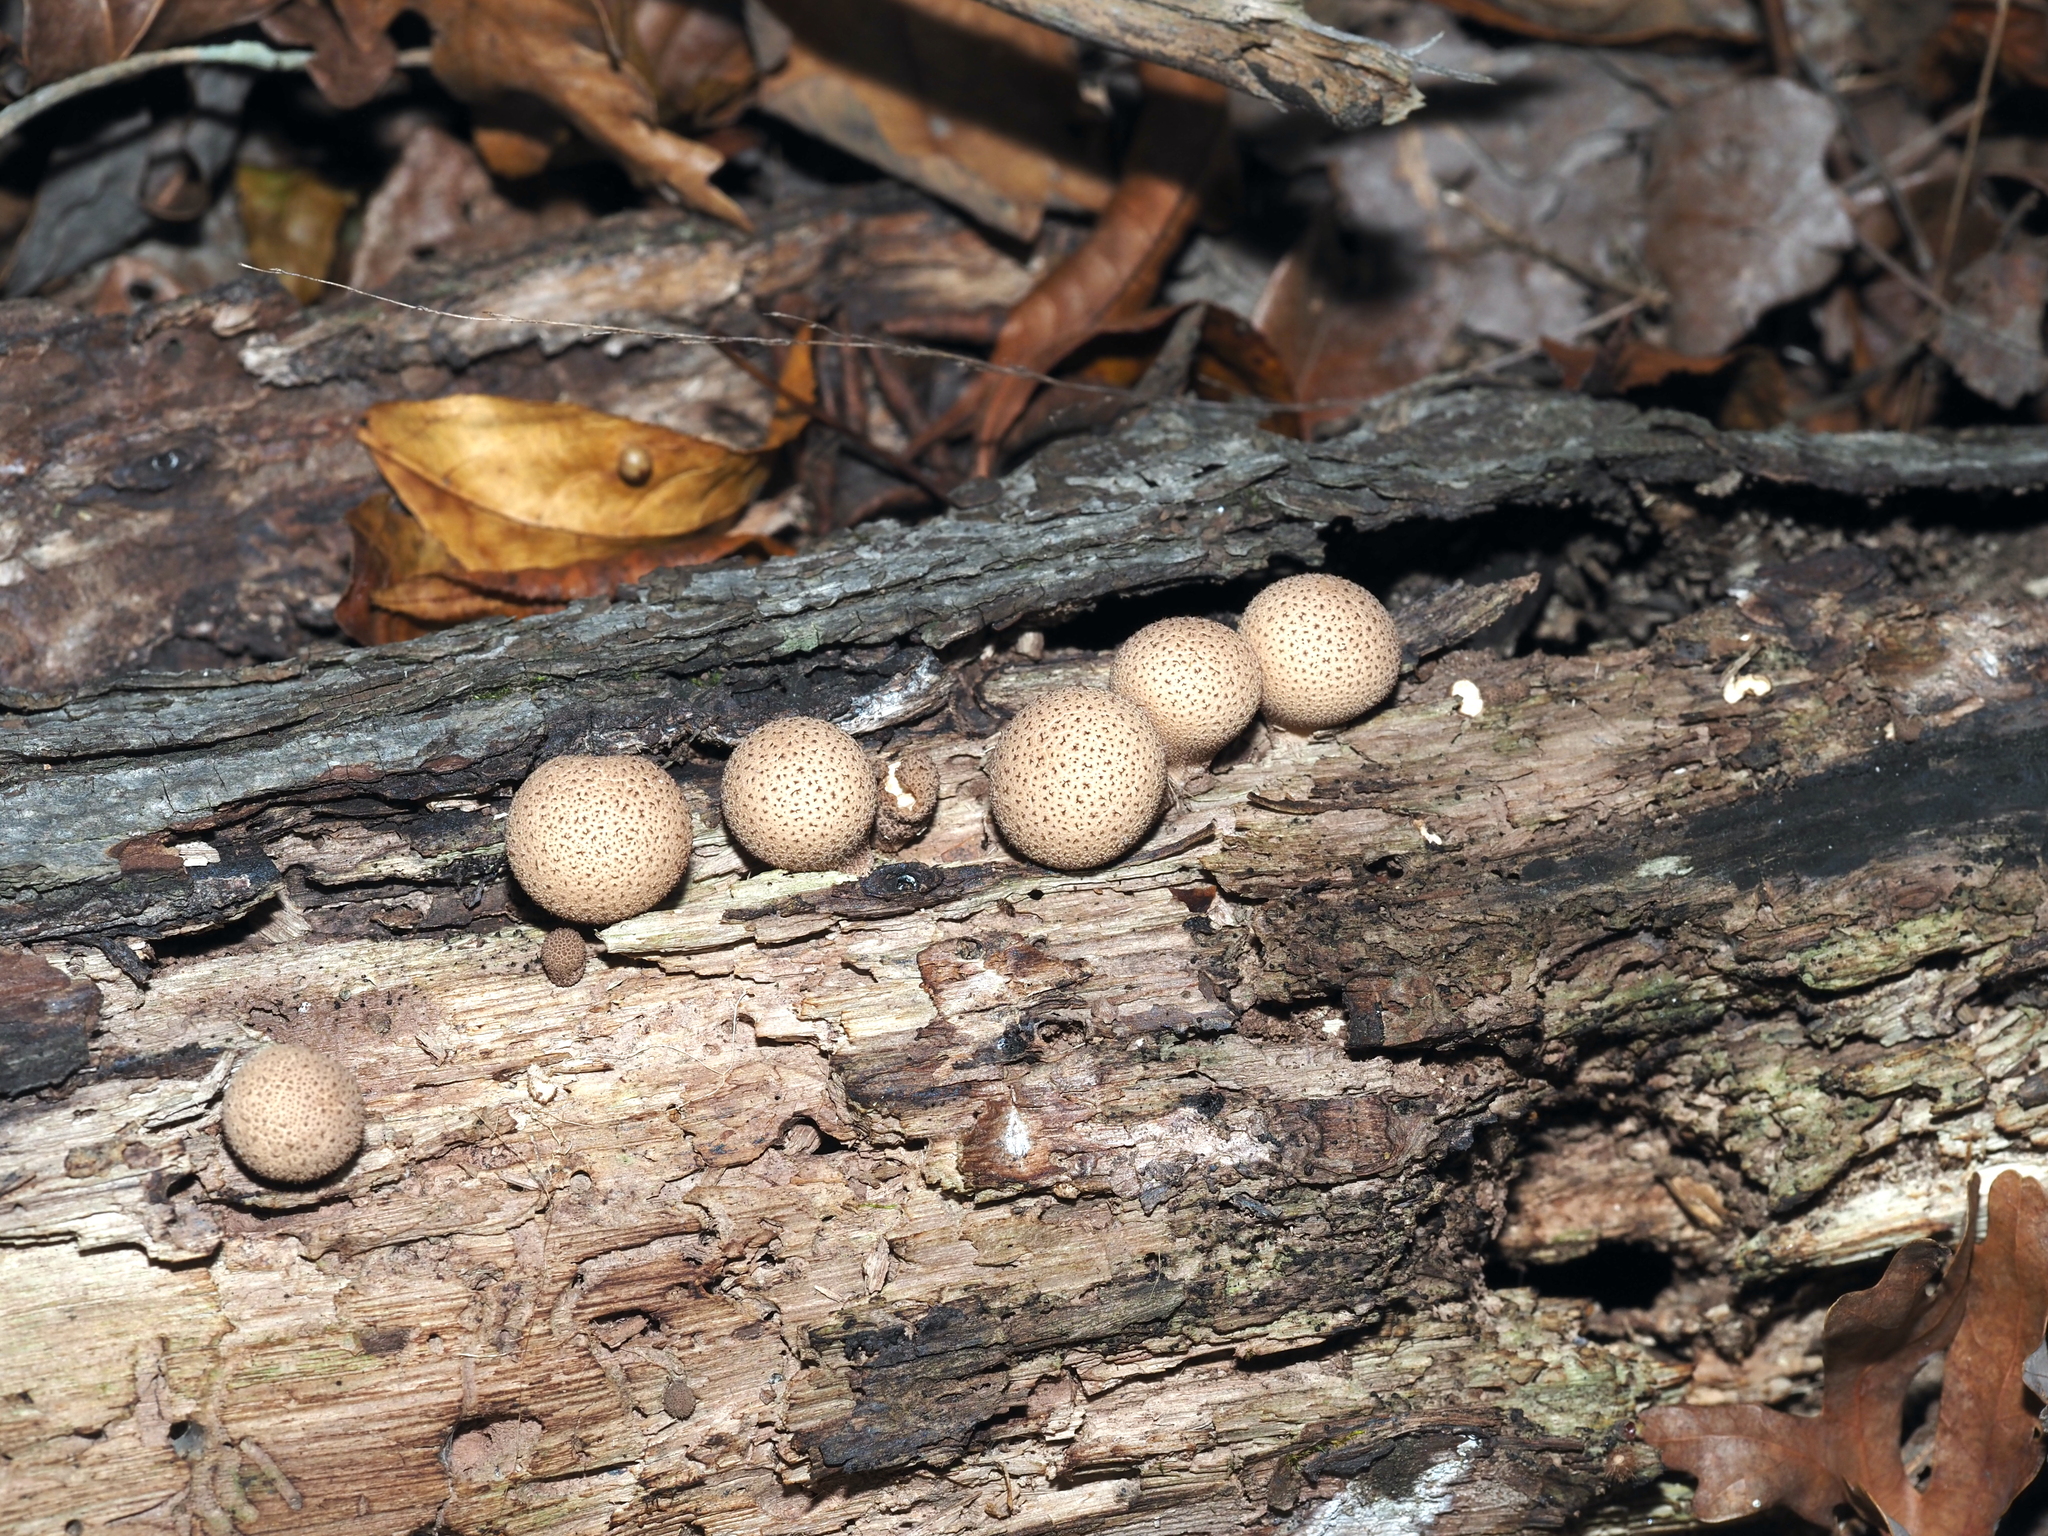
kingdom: Fungi
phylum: Basidiomycota
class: Agaricomycetes
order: Agaricales
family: Lycoperdaceae
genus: Apioperdon
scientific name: Apioperdon pyriforme
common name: Pear-shaped puffball
